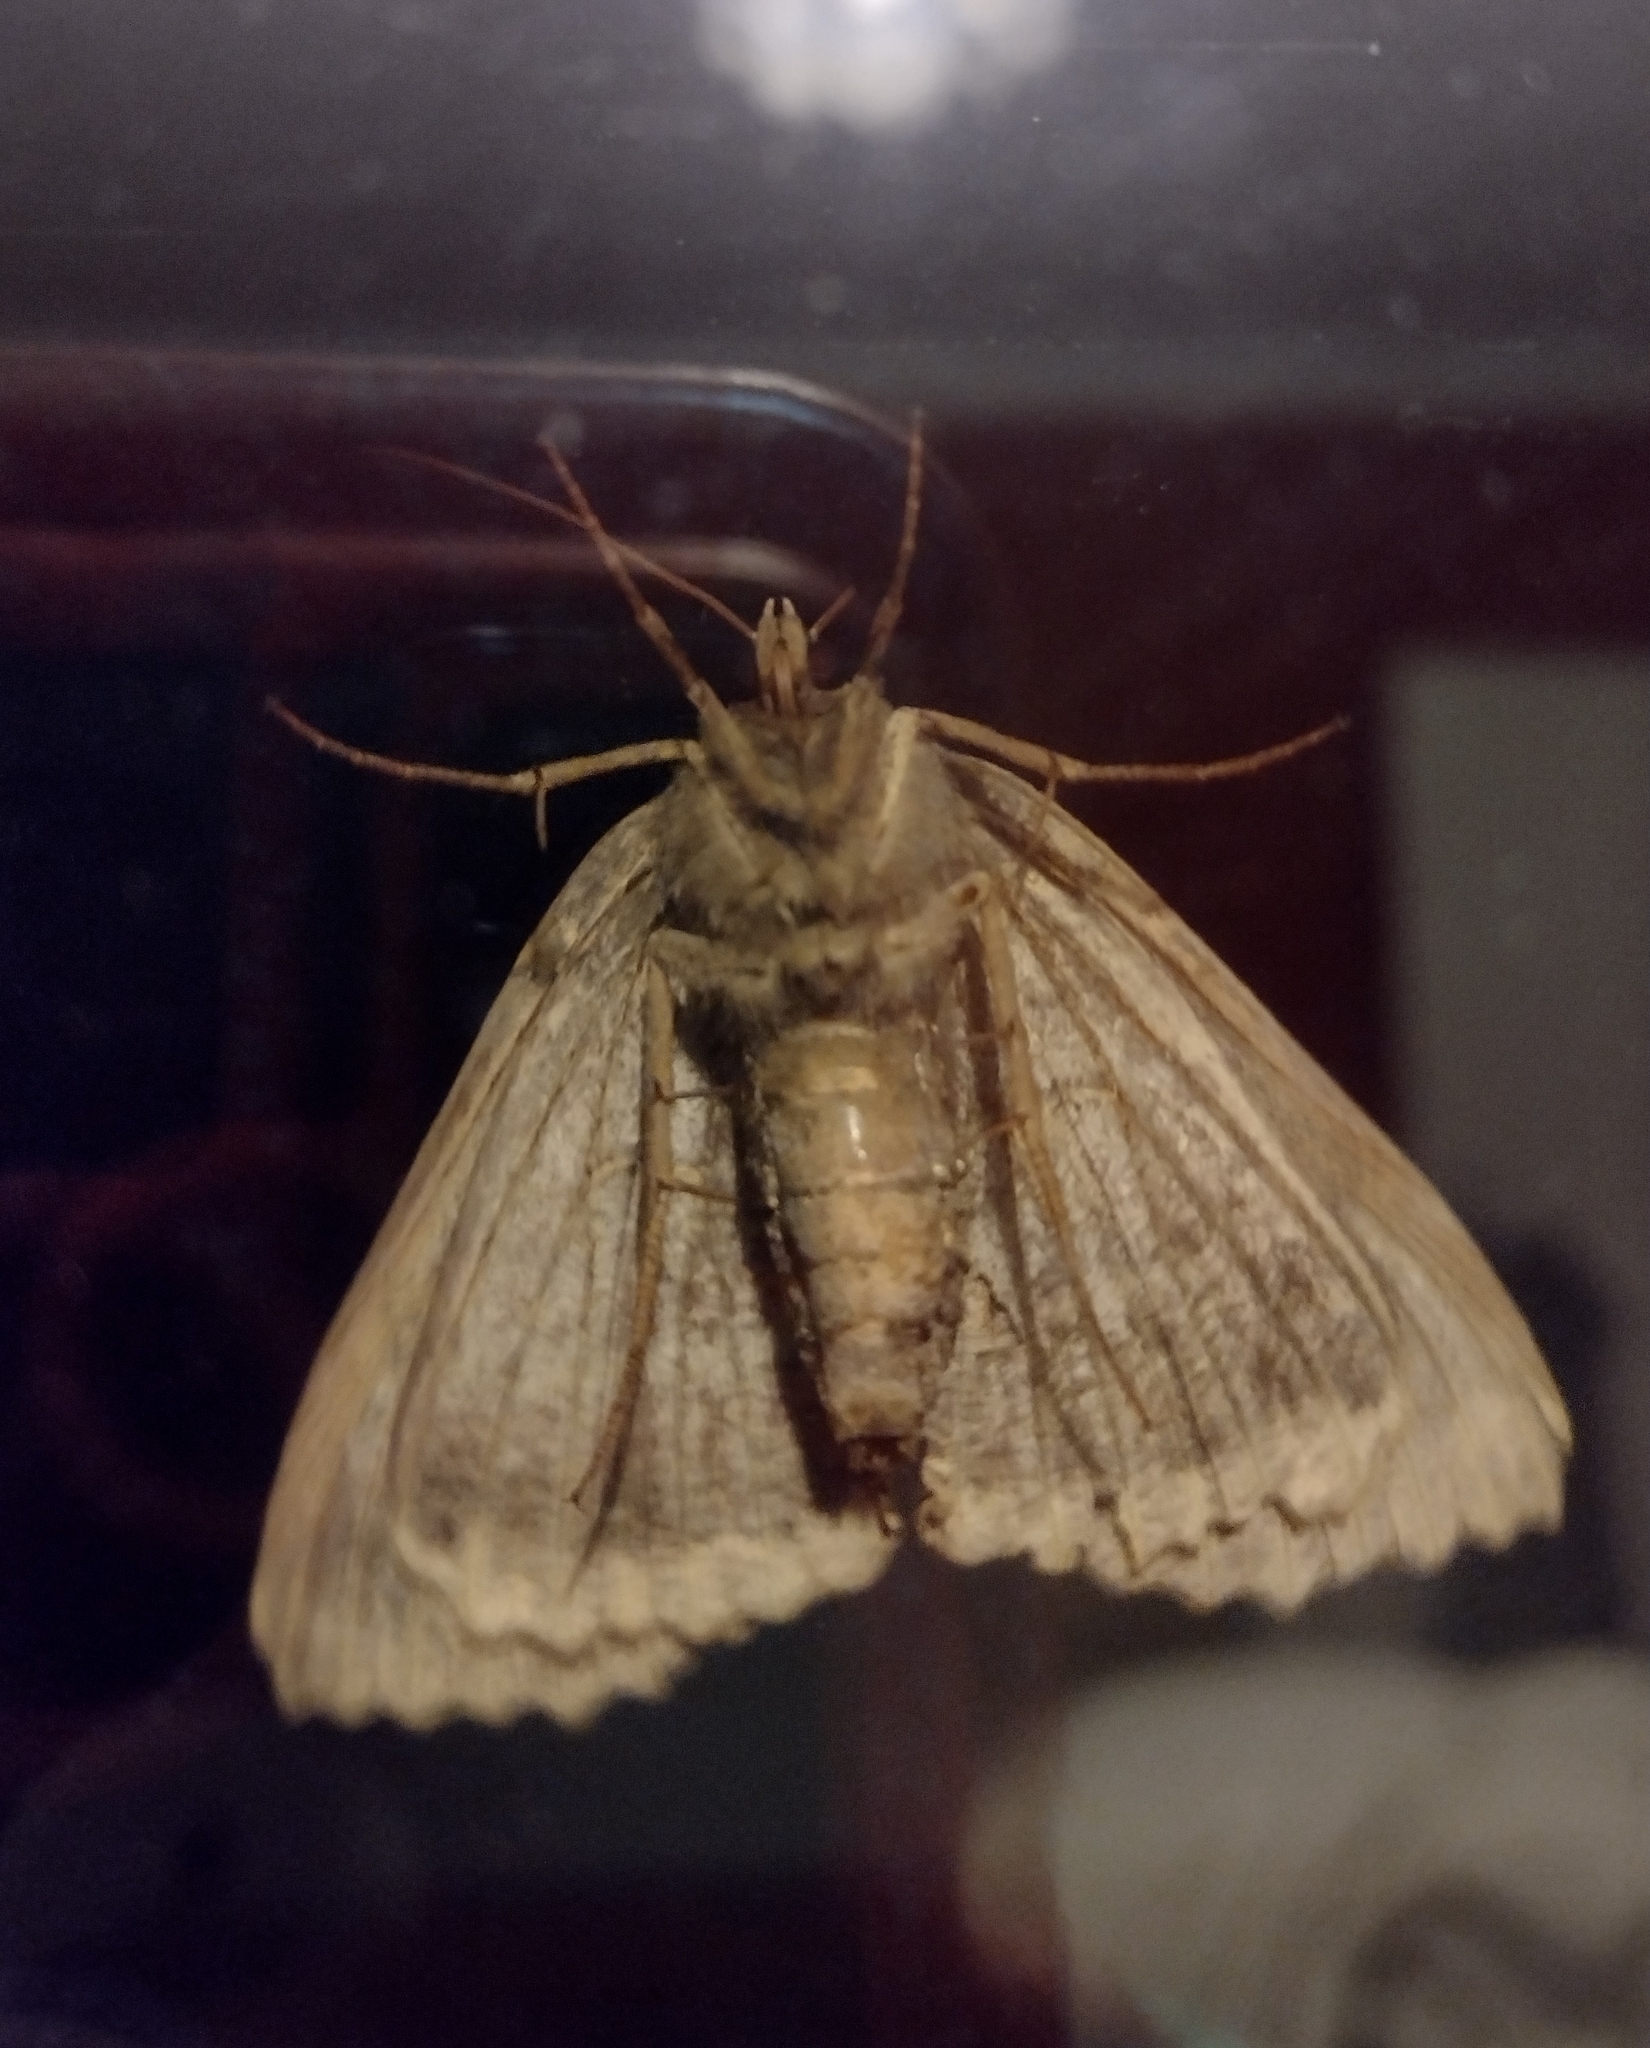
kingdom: Animalia
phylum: Arthropoda
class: Insecta
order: Lepidoptera
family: Noctuidae
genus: Mormo
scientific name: Mormo maura
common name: Old lady
